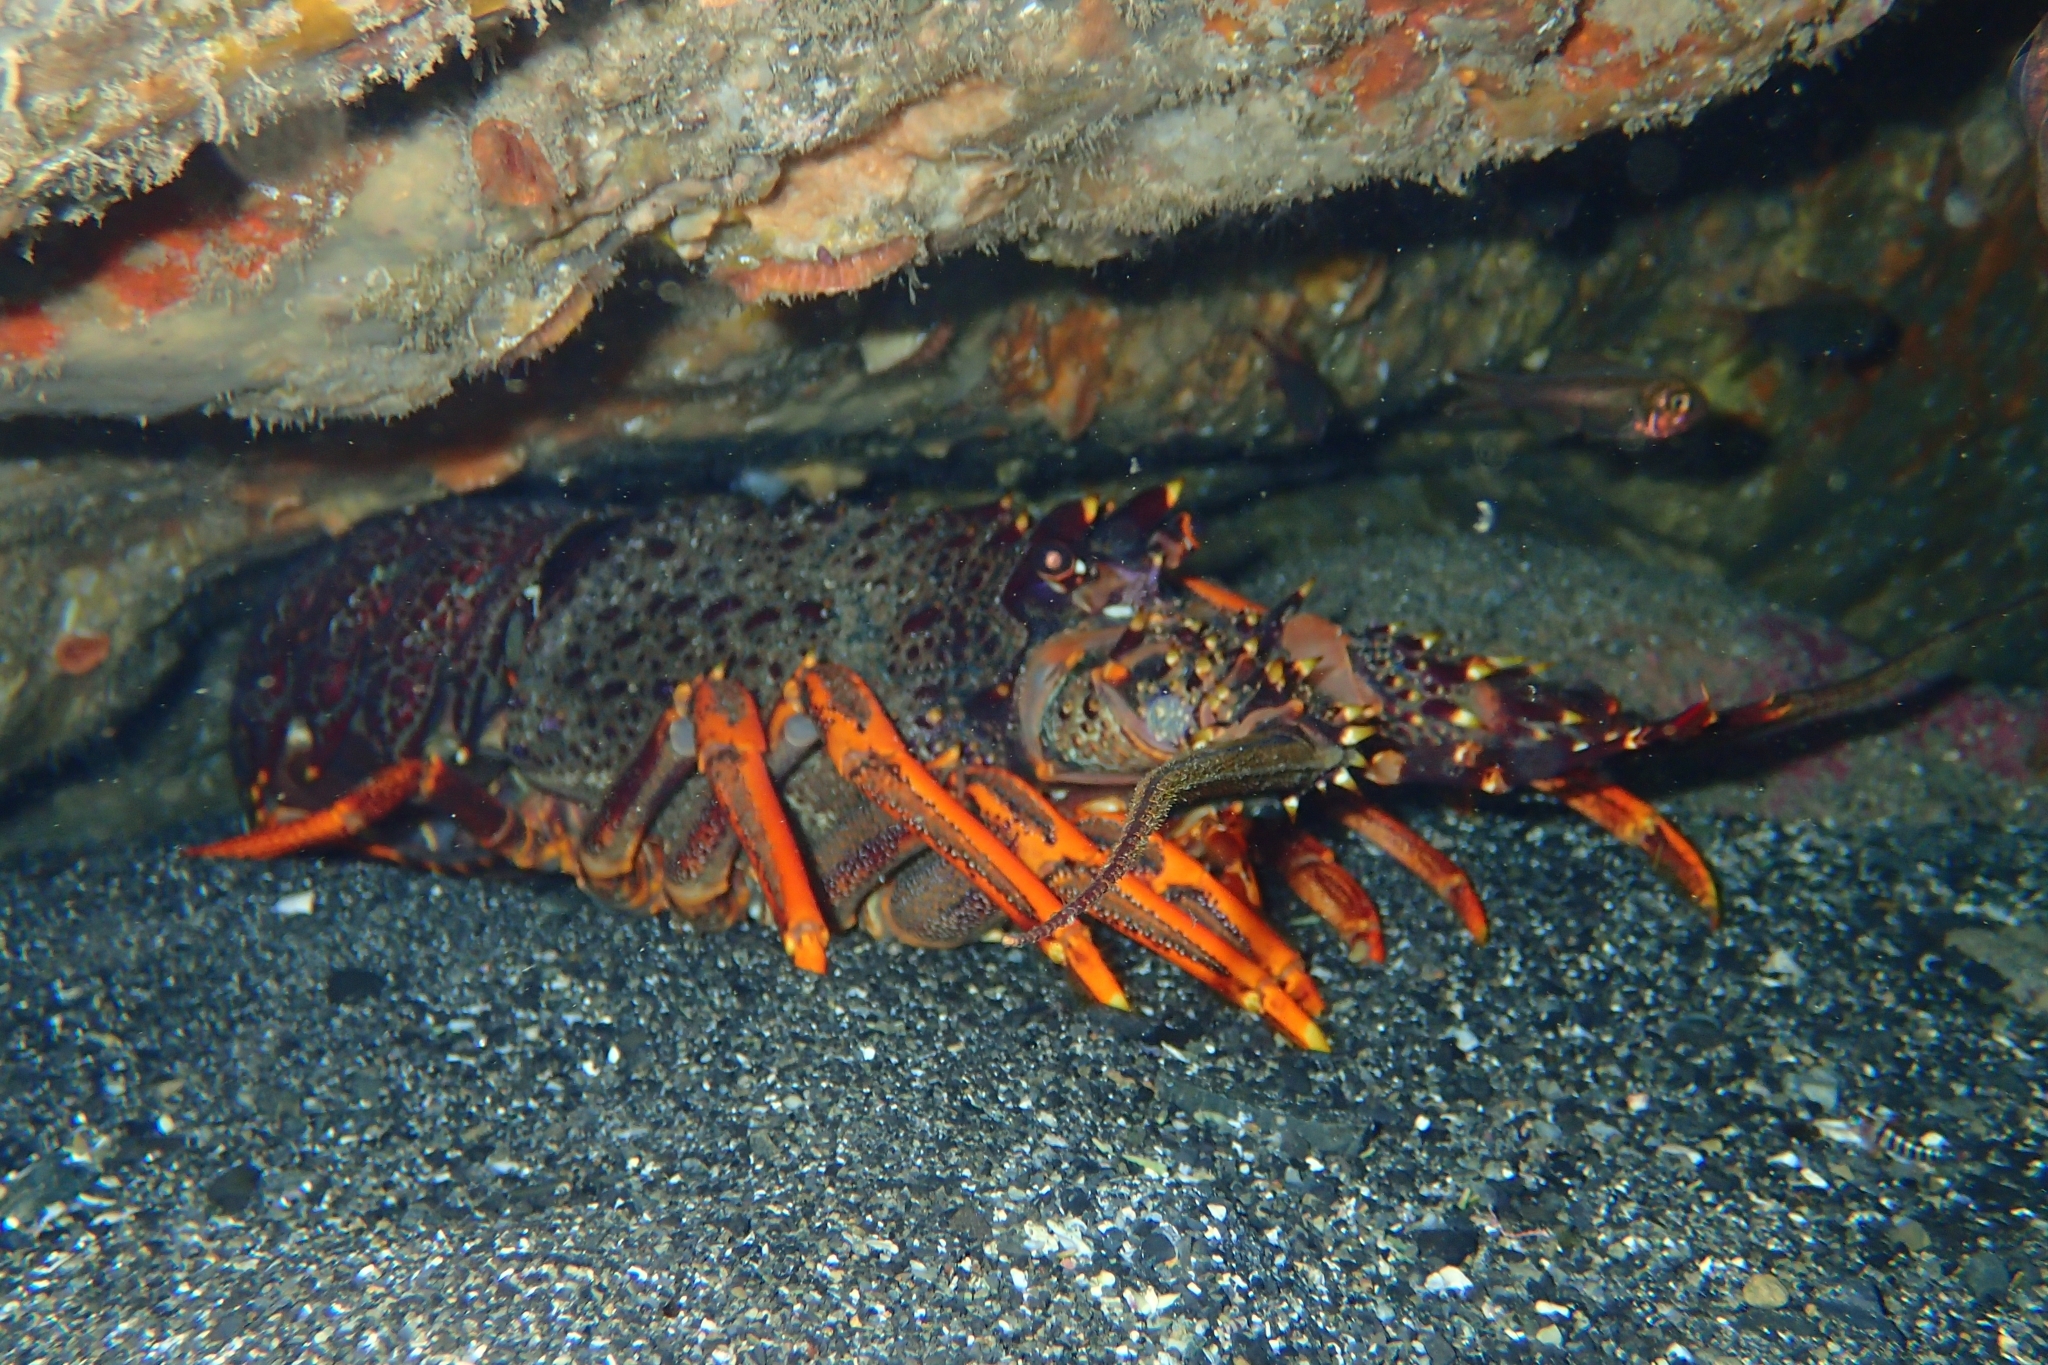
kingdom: Animalia
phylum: Arthropoda
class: Malacostraca
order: Decapoda
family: Palinuridae
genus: Jasus
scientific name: Jasus edwardsii
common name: Red rock lobster
